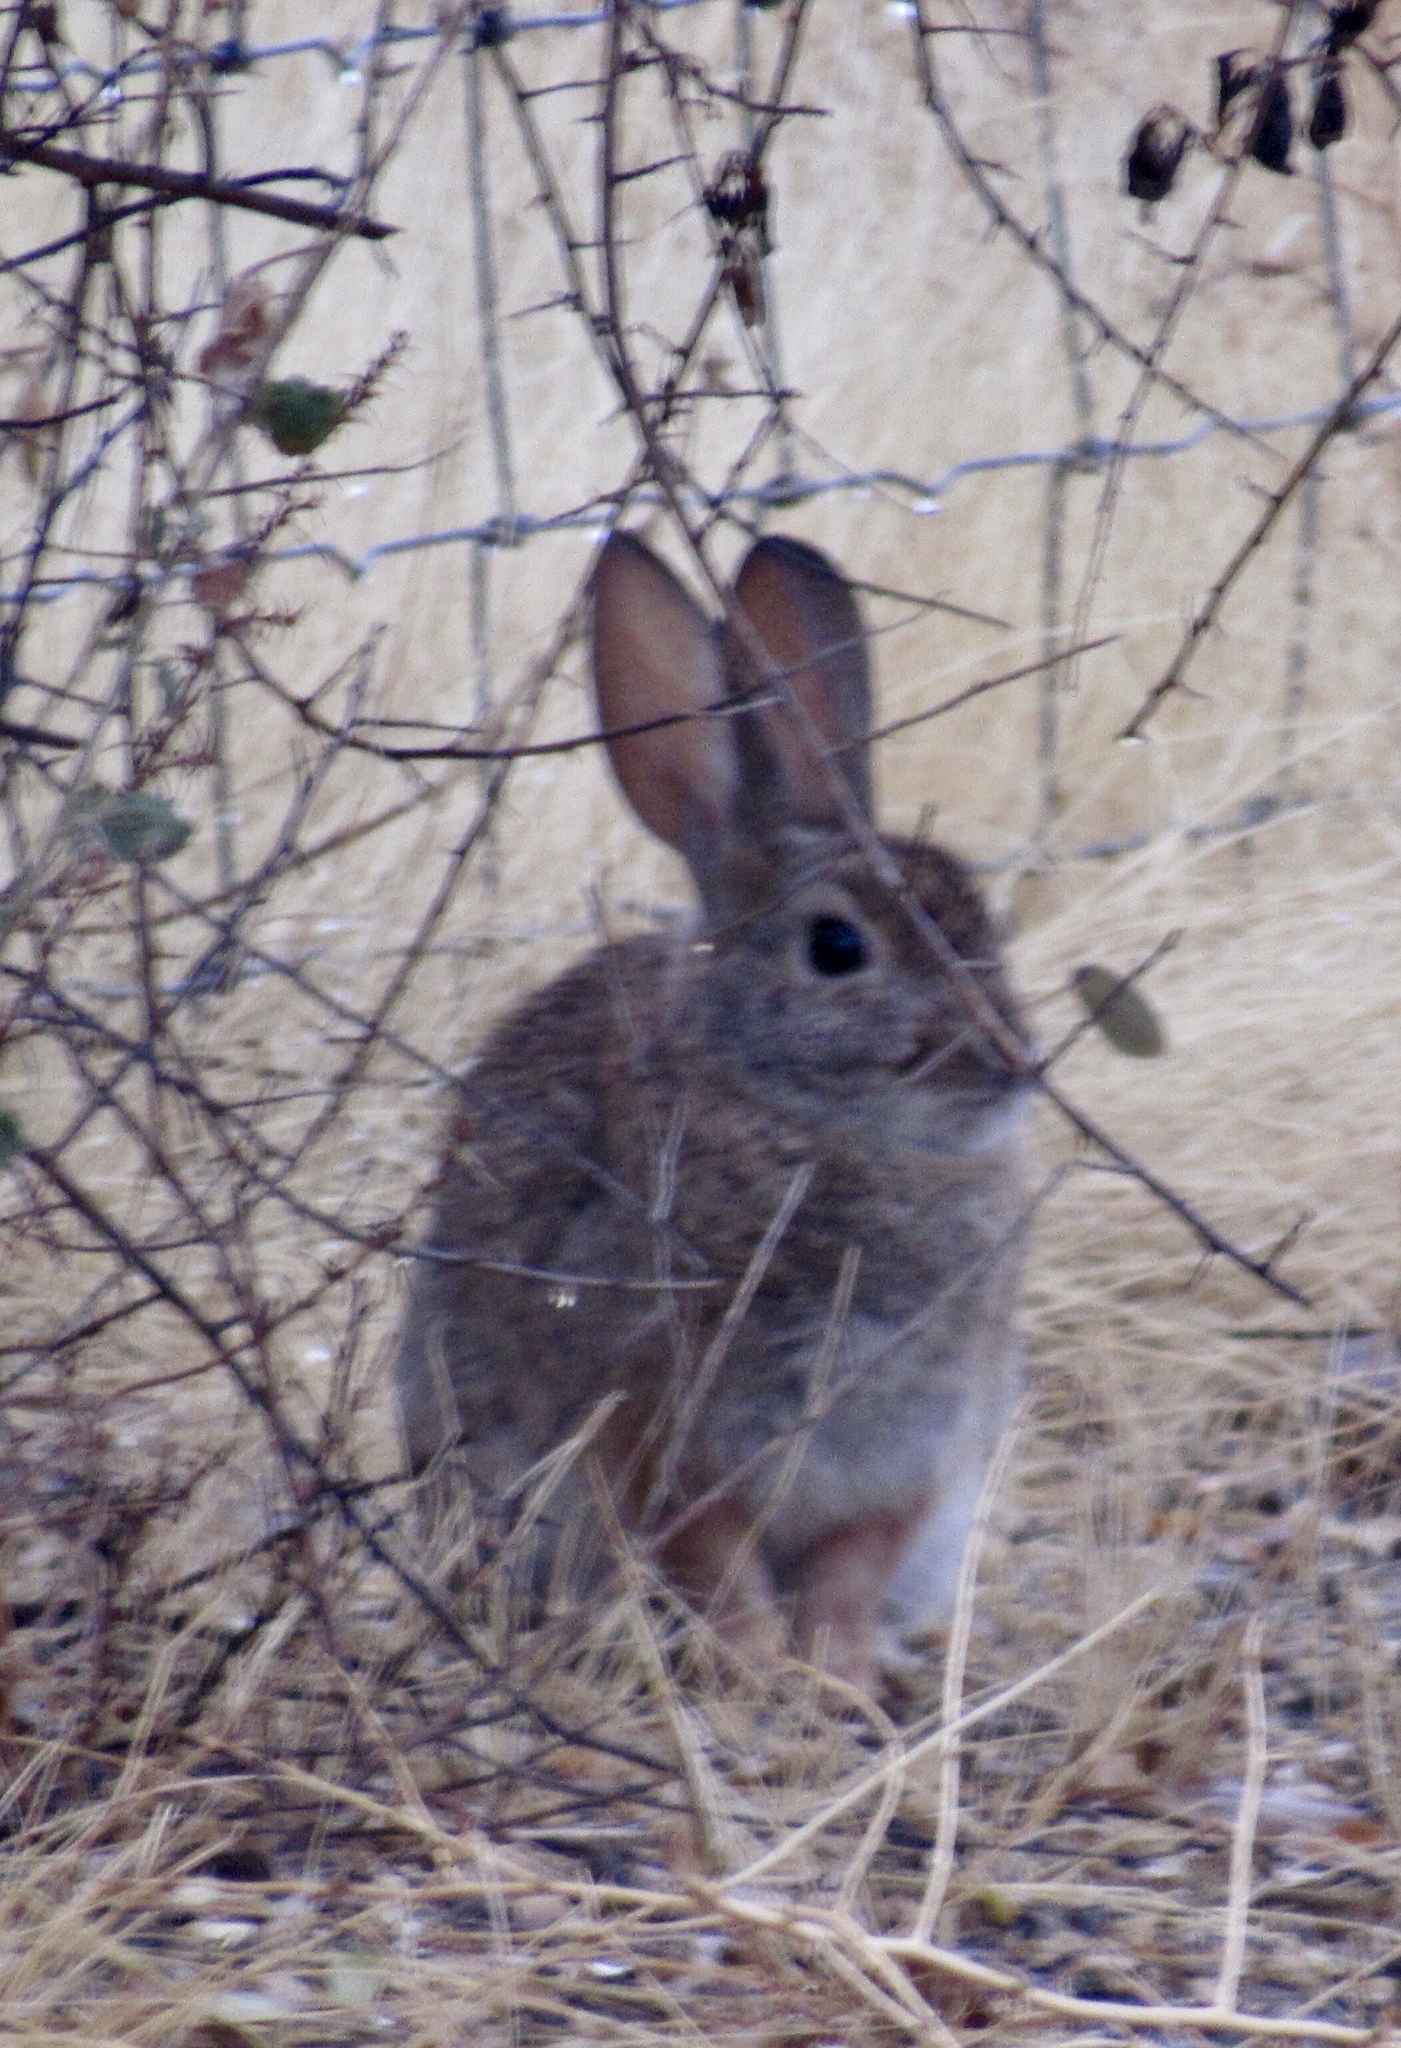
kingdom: Animalia
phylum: Chordata
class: Mammalia
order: Lagomorpha
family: Leporidae
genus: Sylvilagus
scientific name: Sylvilagus audubonii
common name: Desert cottontail
